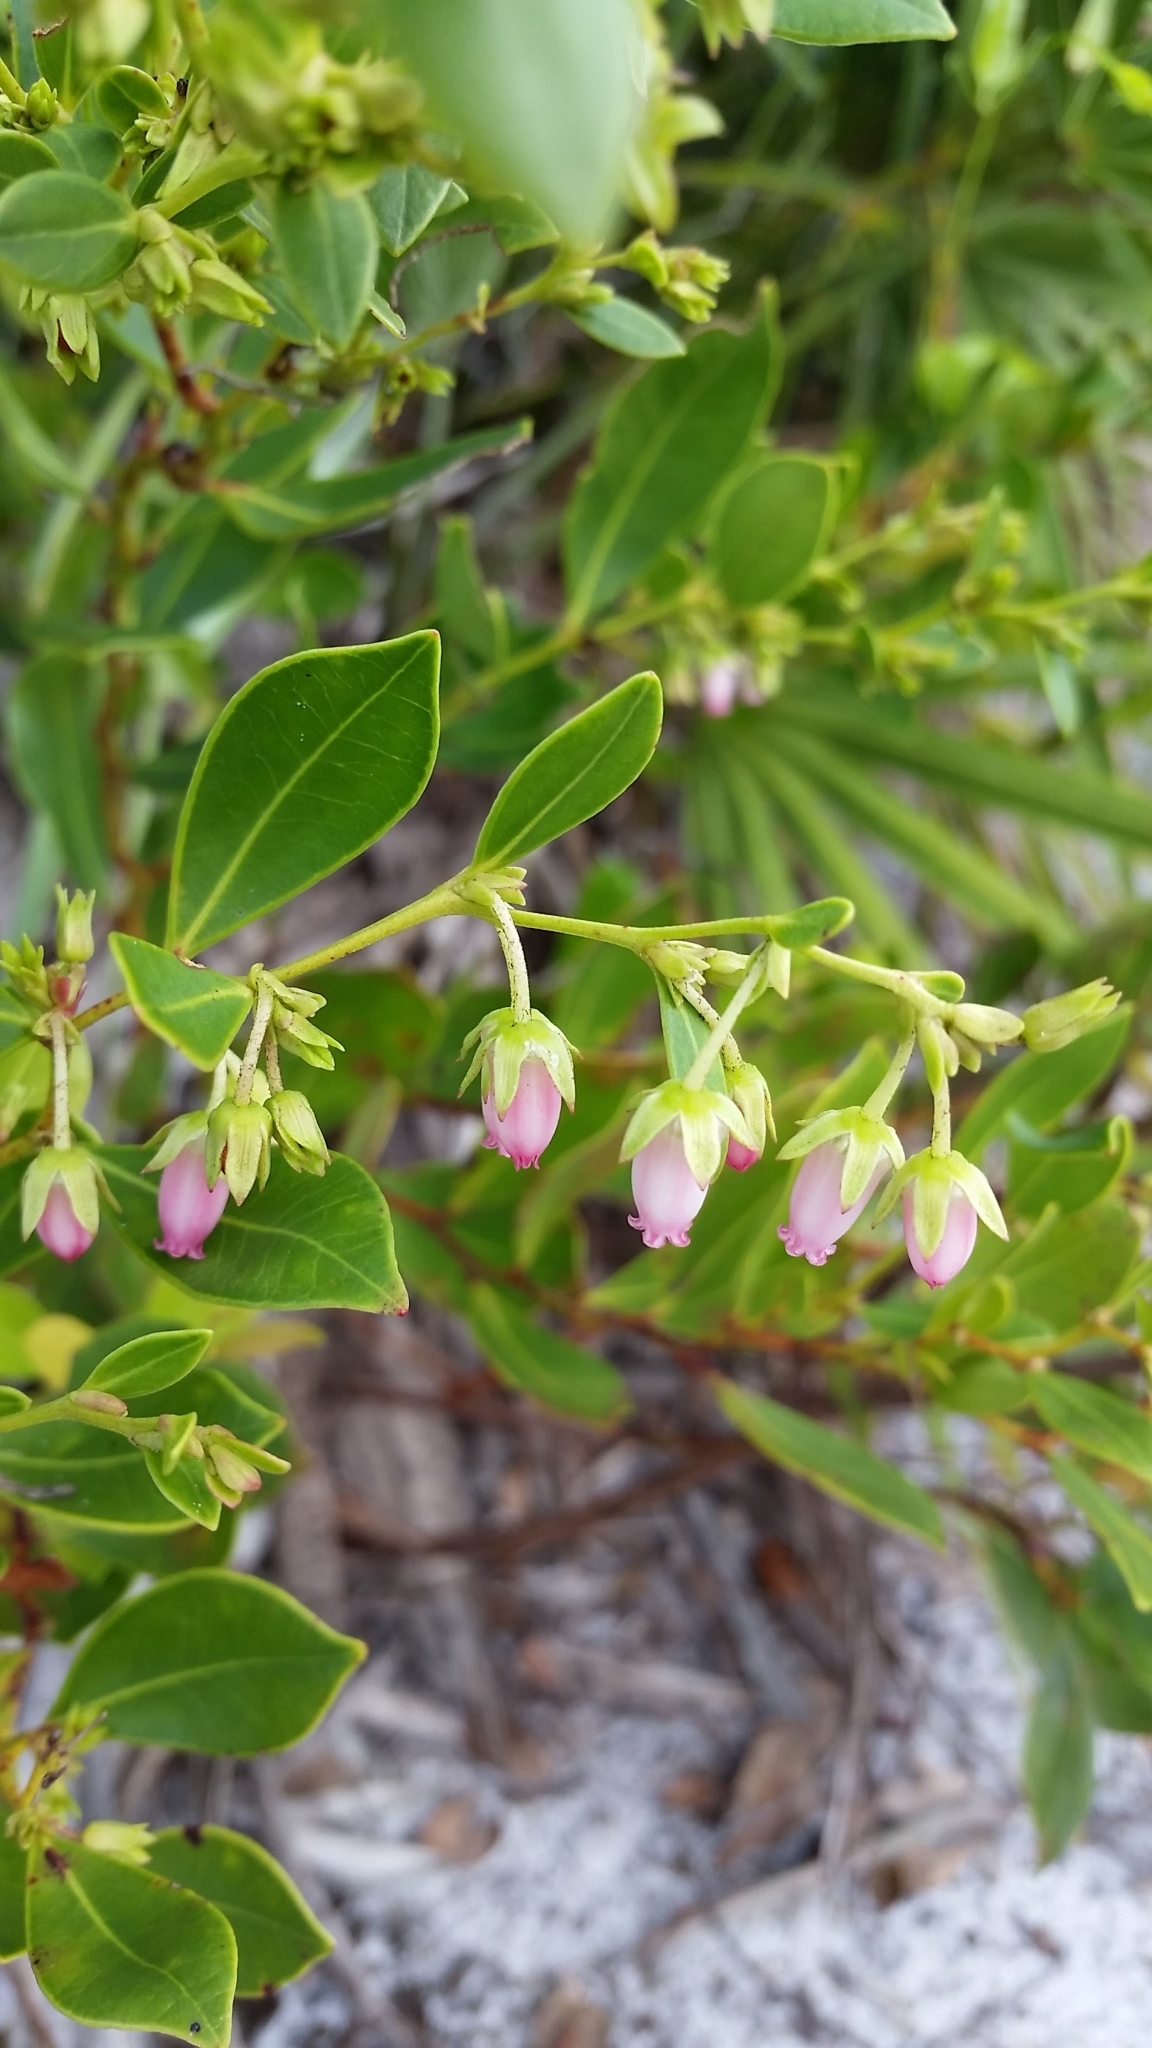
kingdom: Plantae
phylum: Tracheophyta
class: Magnoliopsida
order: Ericales
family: Ericaceae
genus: Lyonia
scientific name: Lyonia lucida
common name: Fetterbush
